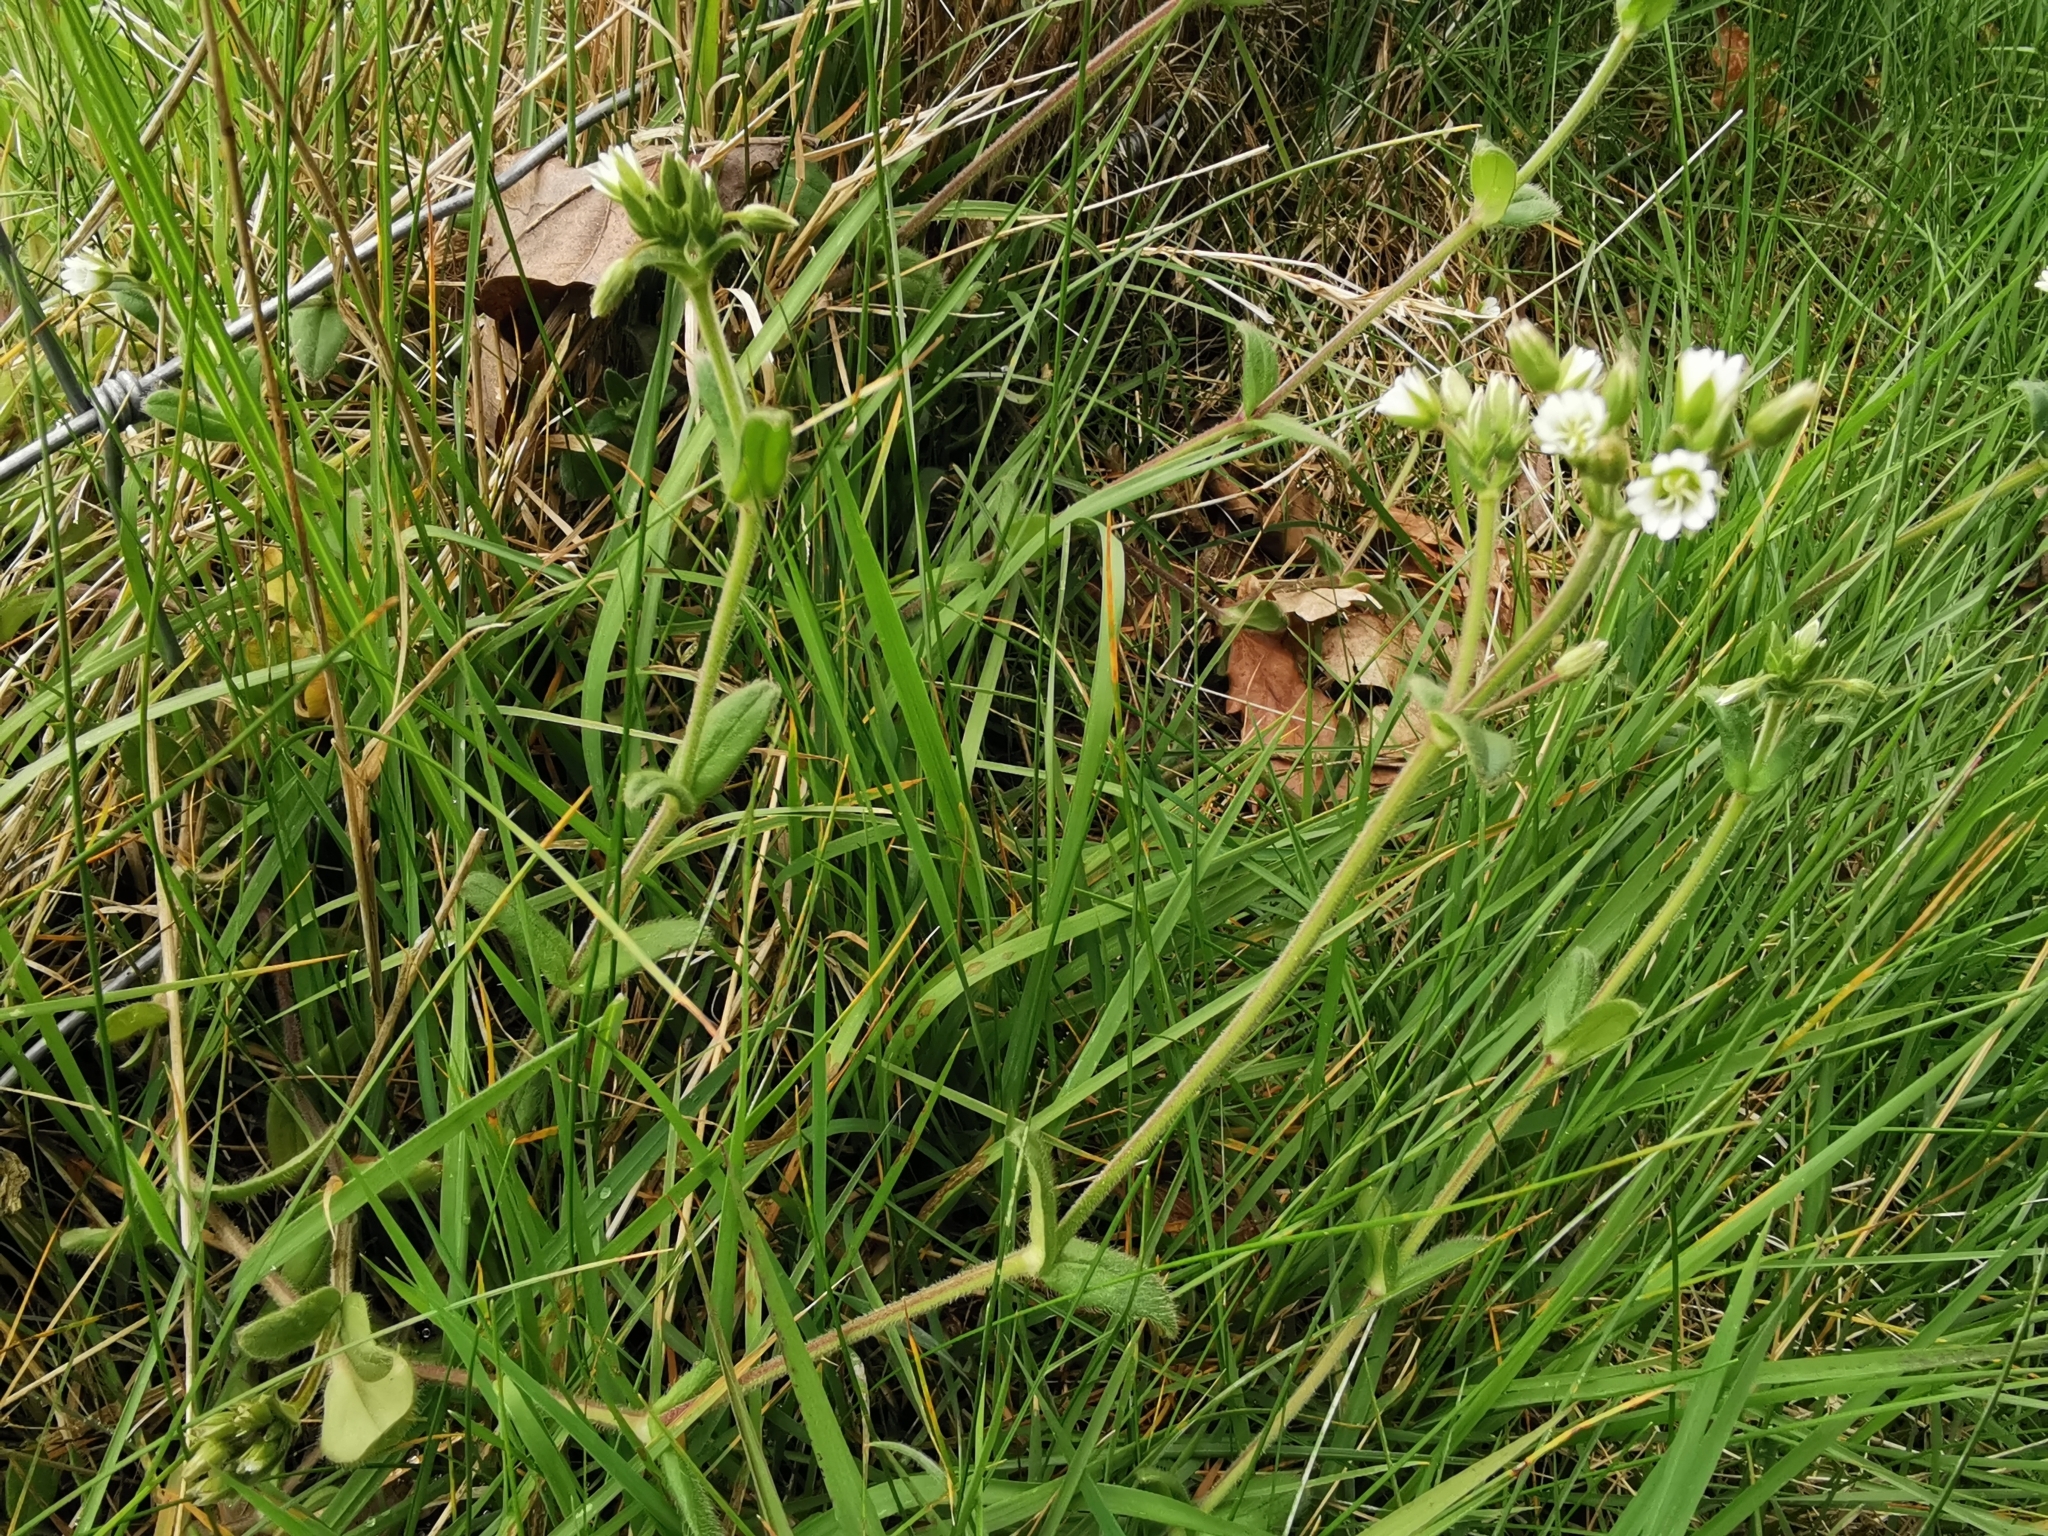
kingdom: Plantae
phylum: Tracheophyta
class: Magnoliopsida
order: Caryophyllales
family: Caryophyllaceae
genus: Cerastium
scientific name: Cerastium fontanum
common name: Common mouse-ear
